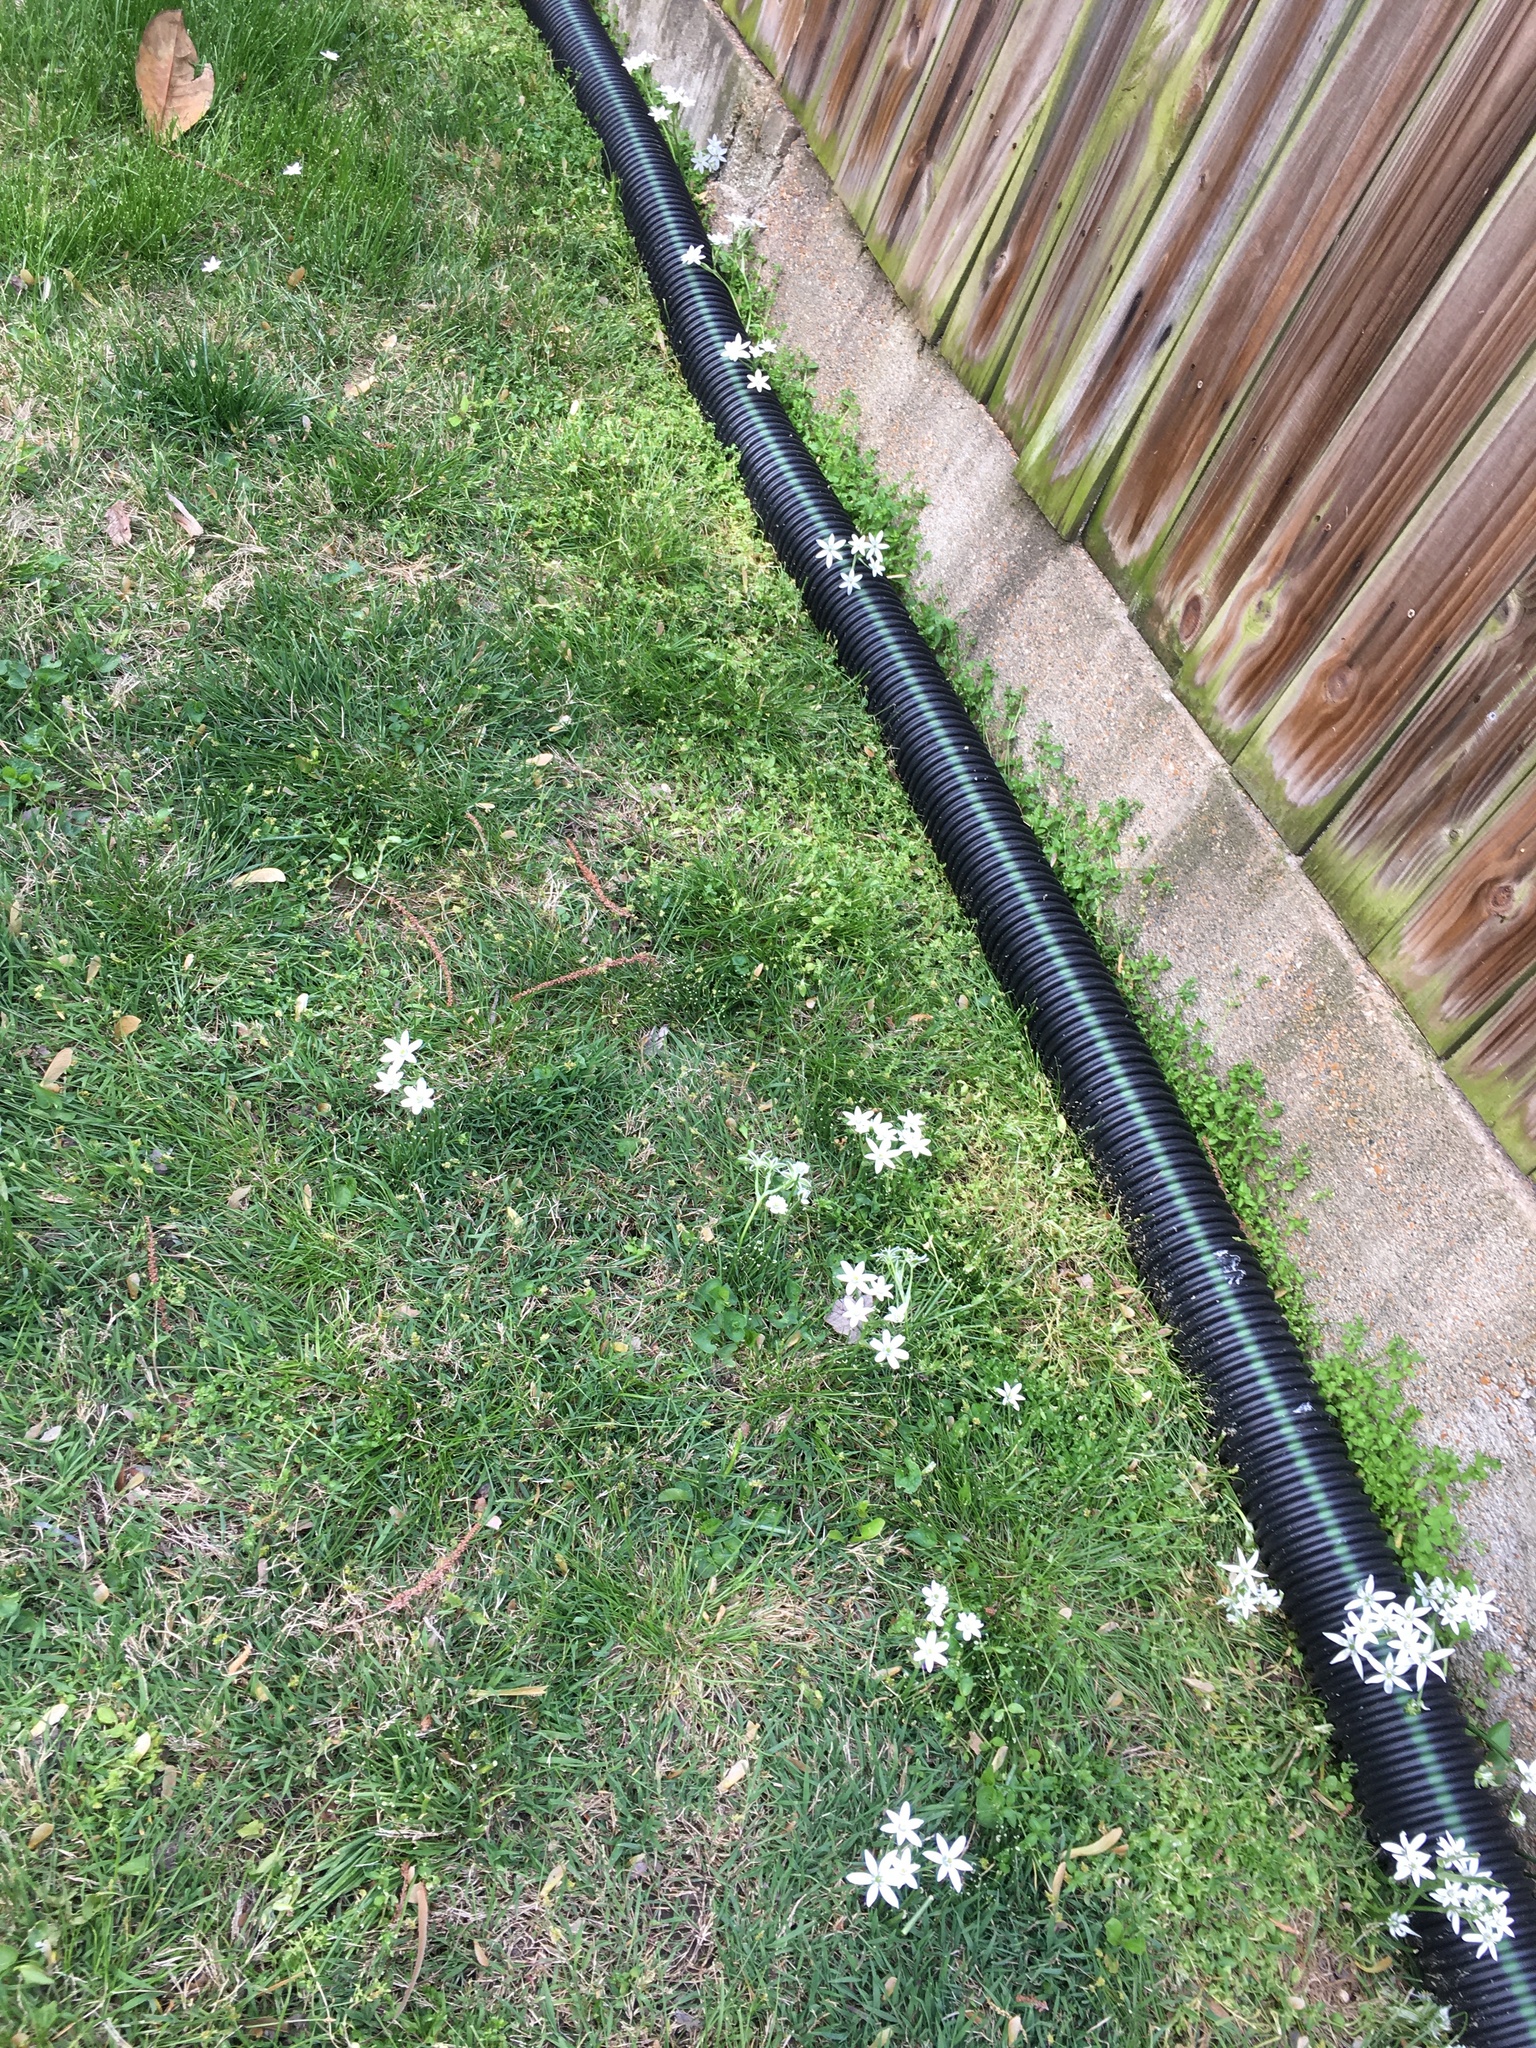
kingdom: Plantae
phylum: Tracheophyta
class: Liliopsida
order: Asparagales
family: Asparagaceae
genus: Ornithogalum
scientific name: Ornithogalum umbellatum
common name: Garden star-of-bethlehem
